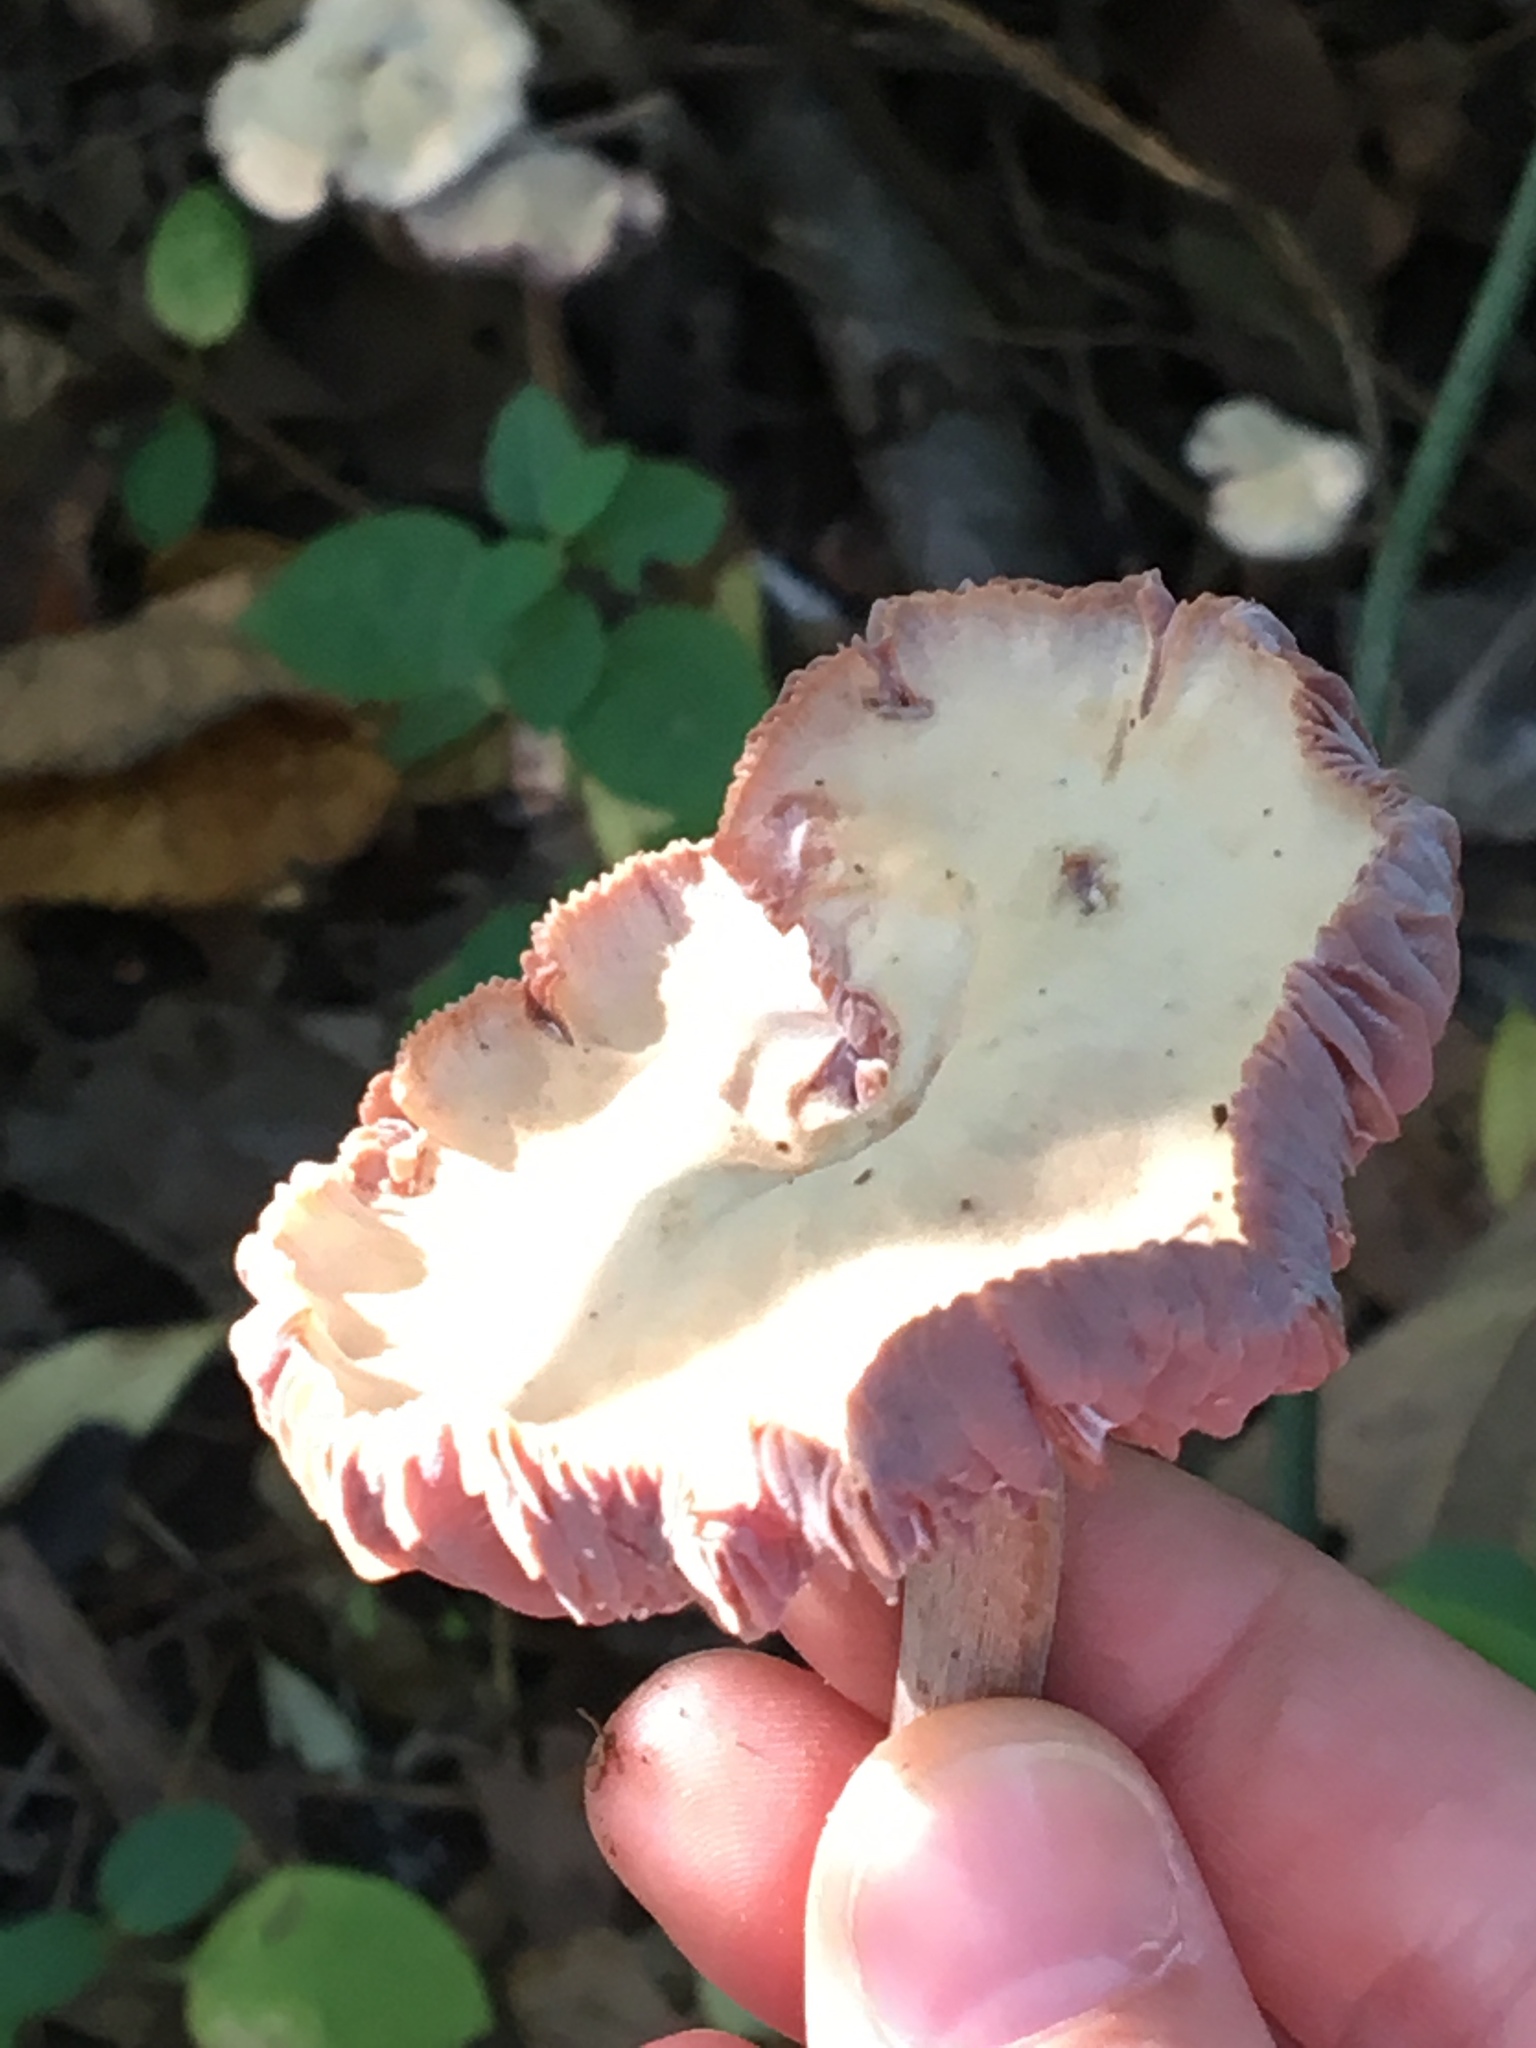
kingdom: Fungi
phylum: Basidiomycota
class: Agaricomycetes
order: Agaricales
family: Hydnangiaceae
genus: Laccaria
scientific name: Laccaria ochropurpurea
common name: Purple laccaria
